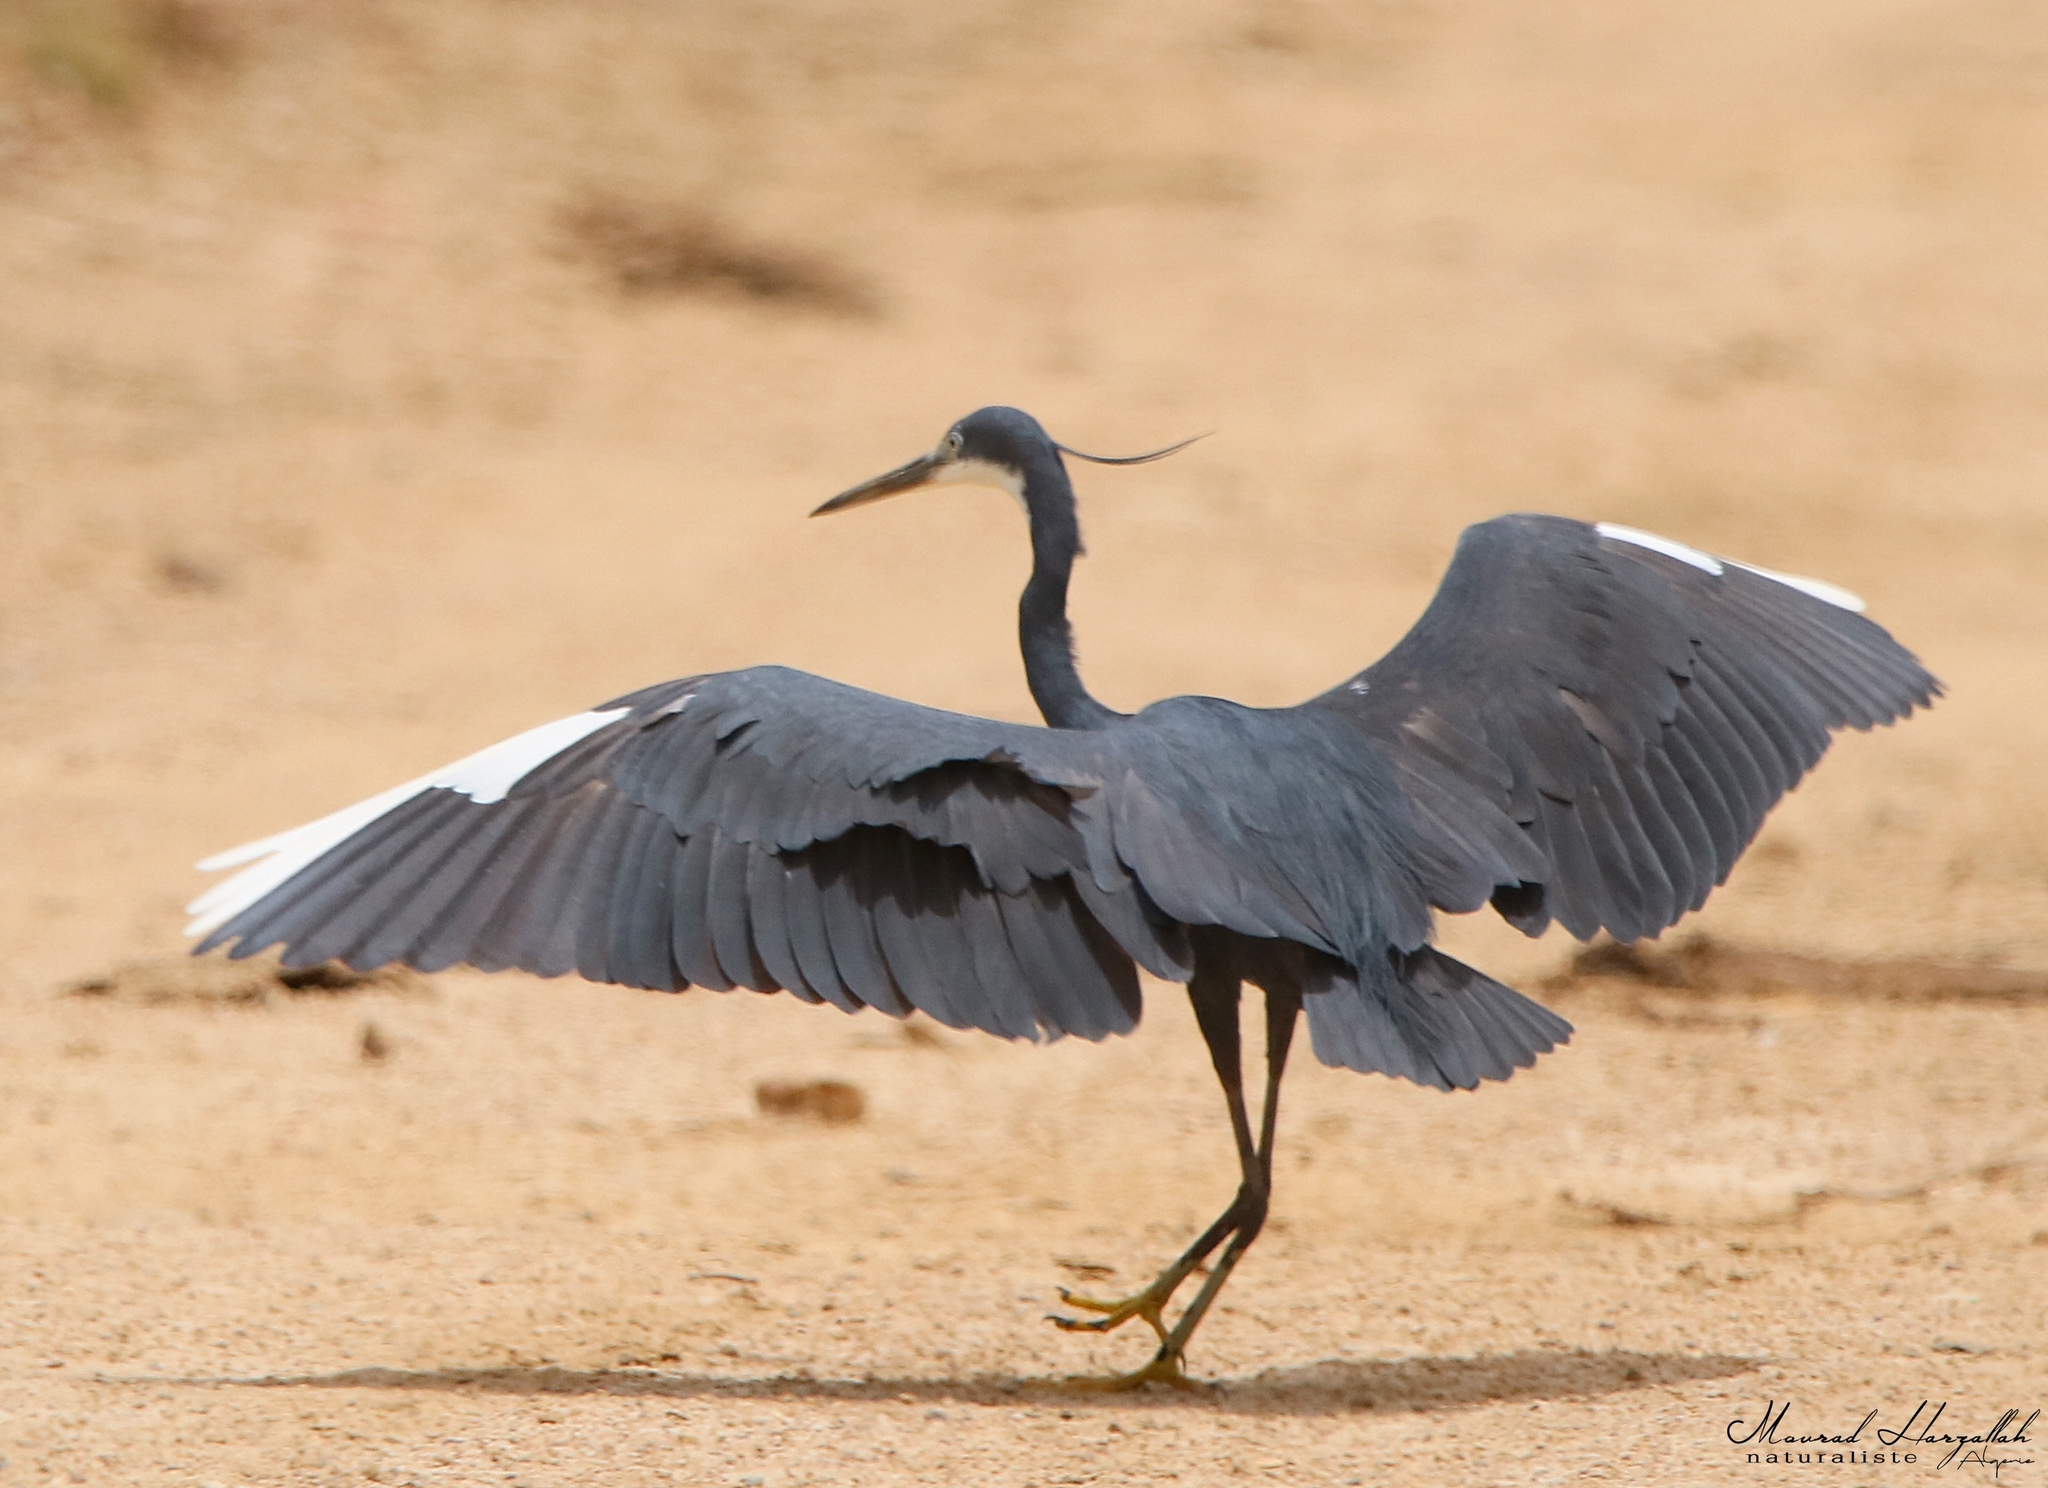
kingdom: Animalia
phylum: Chordata
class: Aves
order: Pelecaniformes
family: Ardeidae
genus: Egretta
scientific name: Egretta gularis
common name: Western reef-heron
